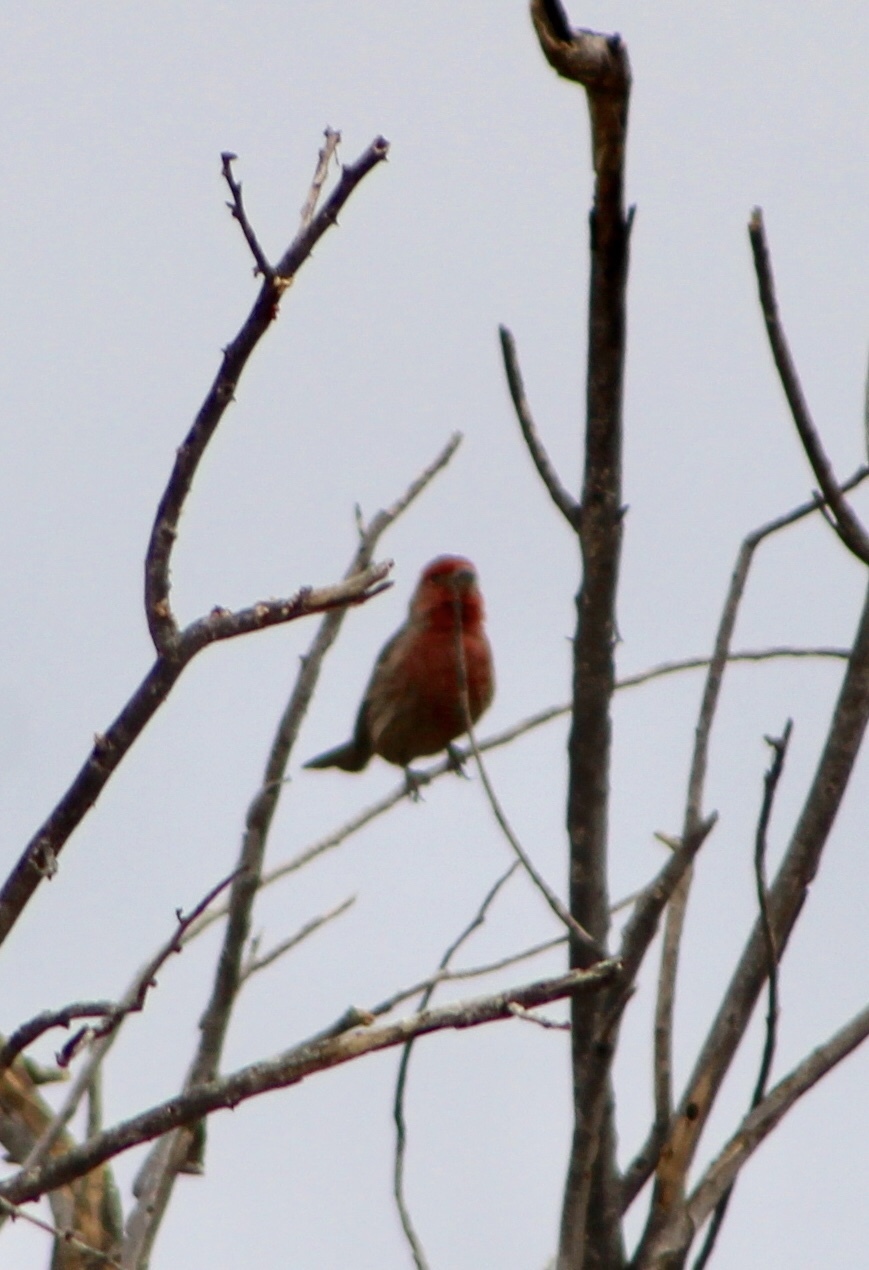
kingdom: Animalia
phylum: Chordata
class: Aves
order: Passeriformes
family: Fringillidae
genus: Haemorhous
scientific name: Haemorhous mexicanus
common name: House finch
